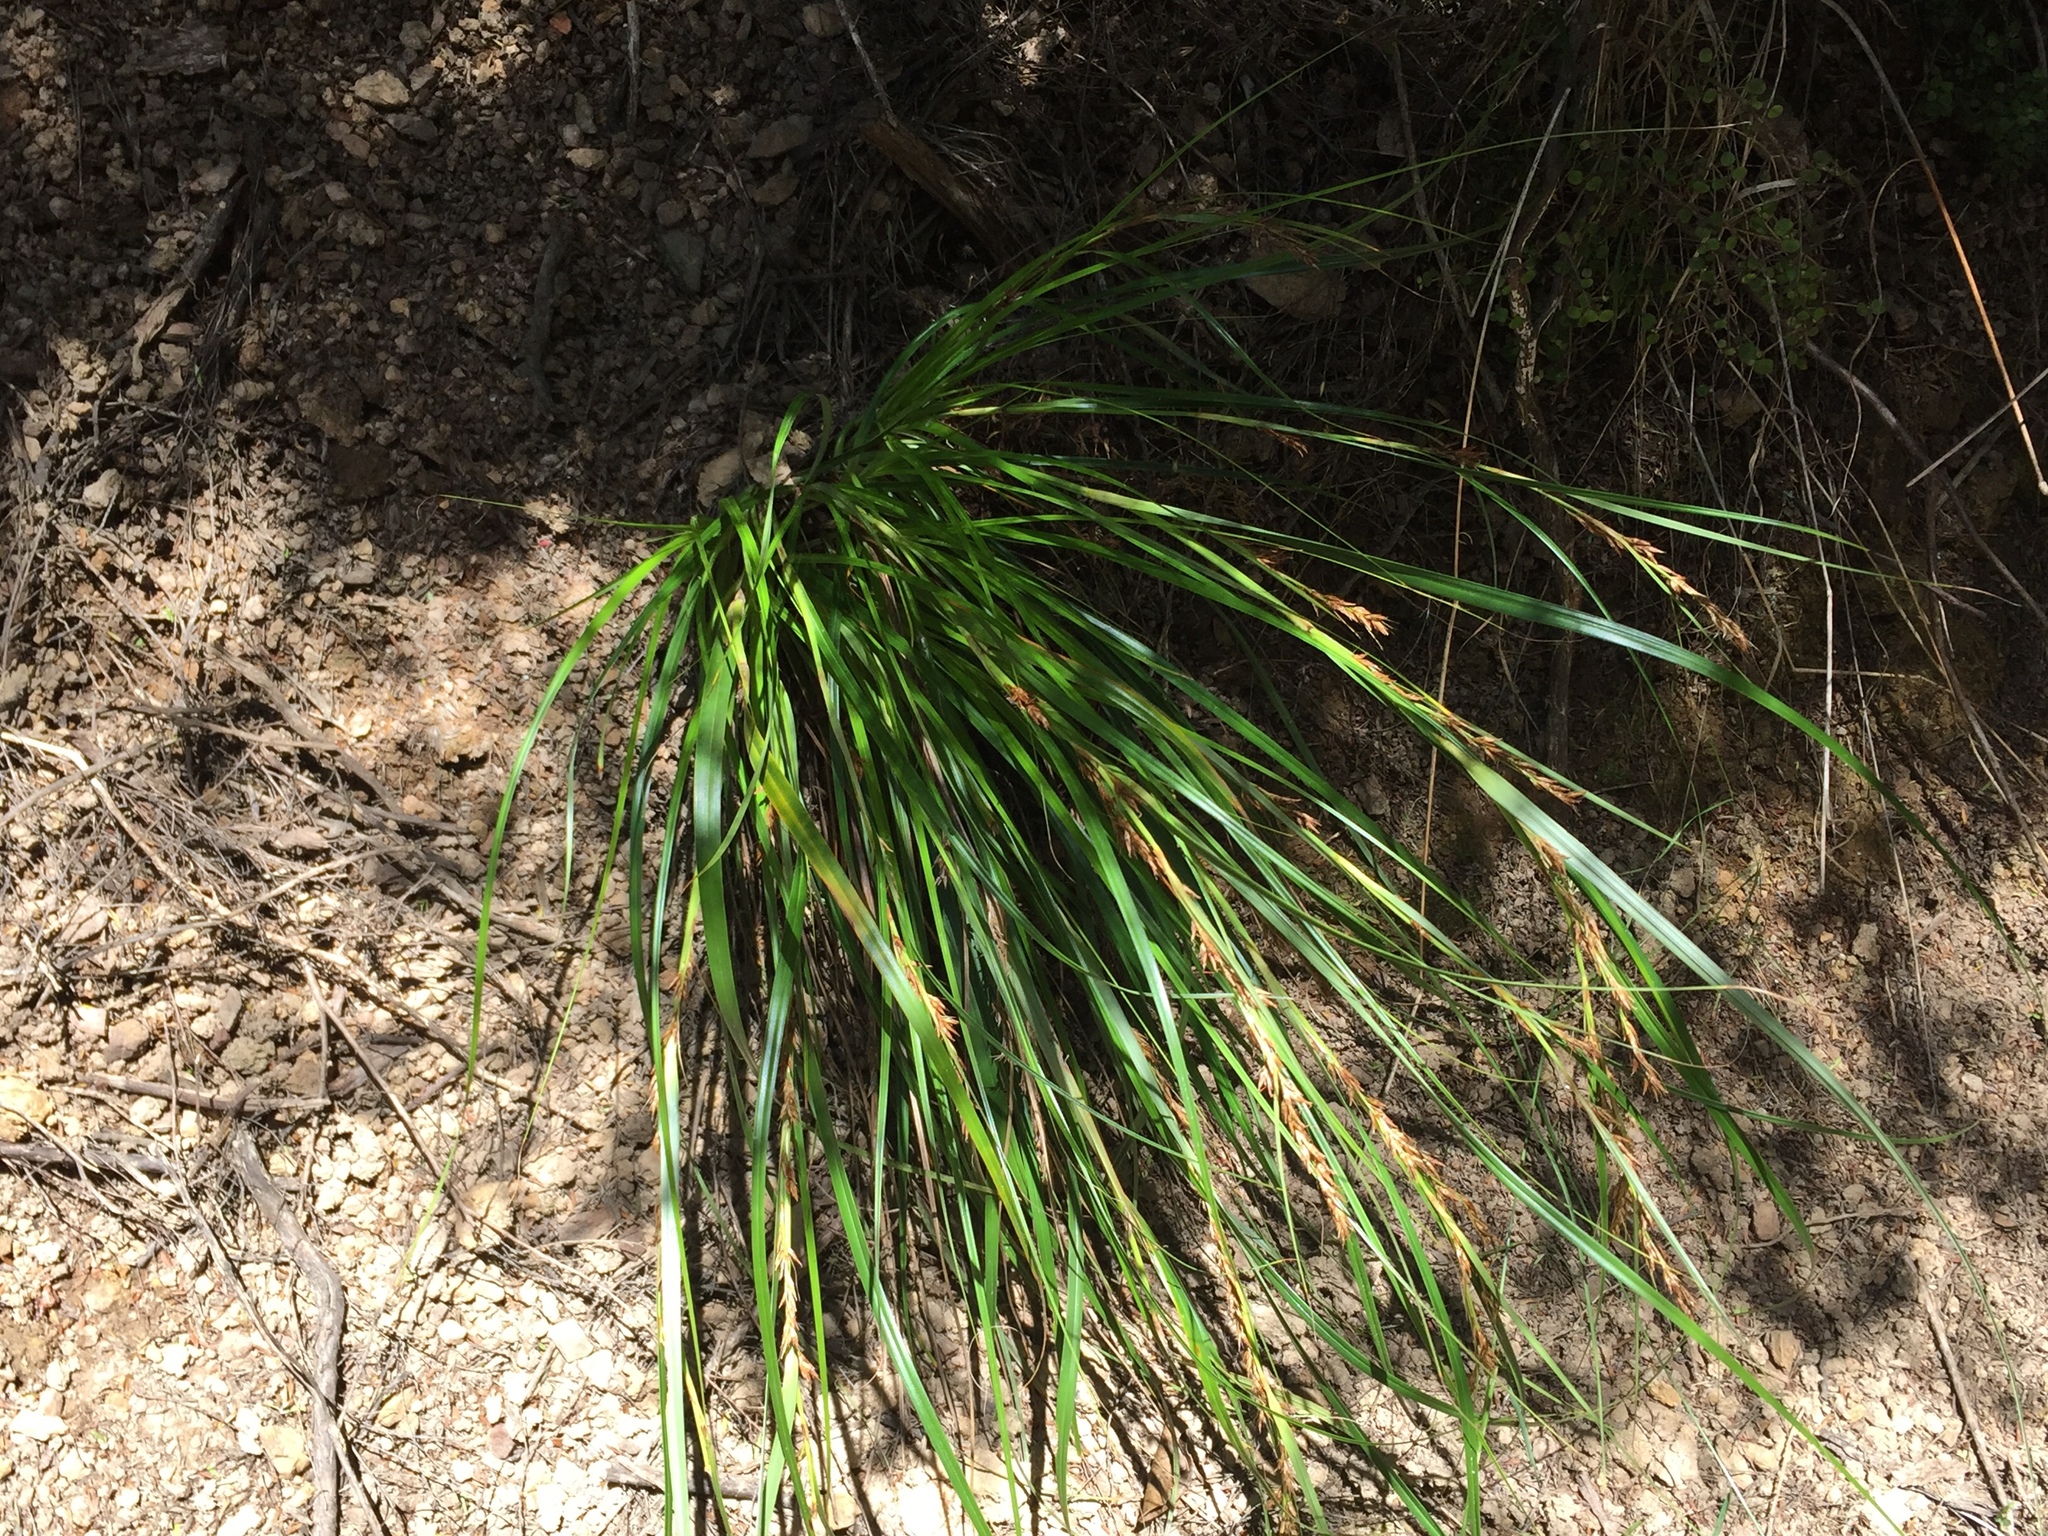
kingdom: Plantae
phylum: Tracheophyta
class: Liliopsida
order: Poales
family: Cyperaceae
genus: Morelotia
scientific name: Morelotia affinis
